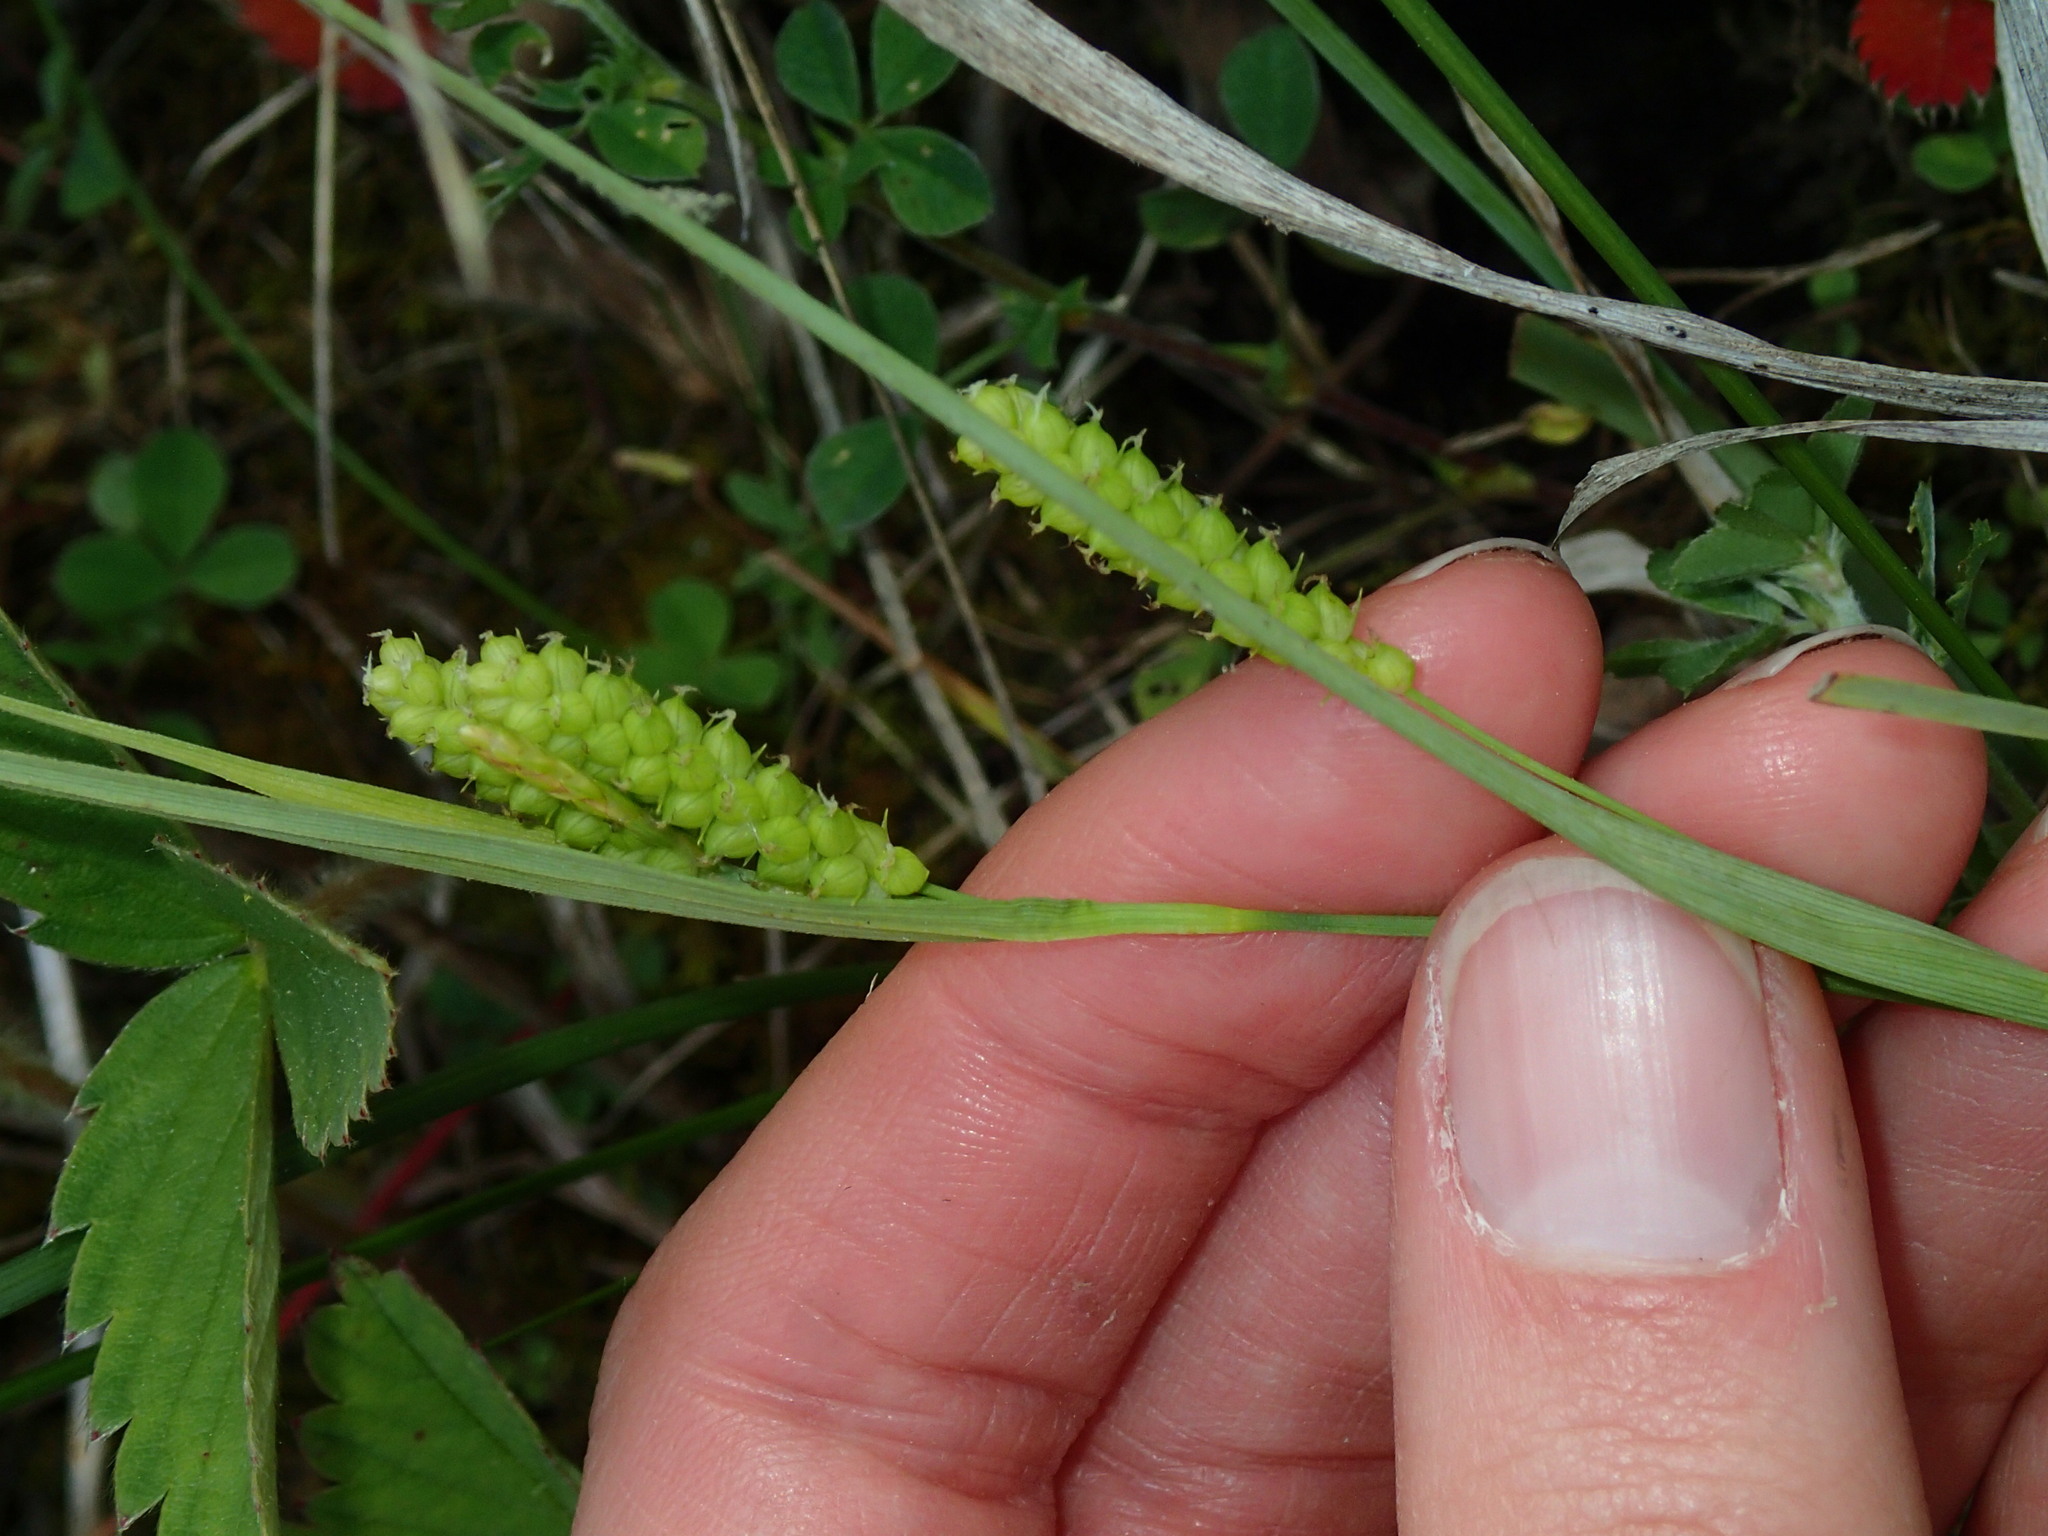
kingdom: Plantae
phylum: Tracheophyta
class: Liliopsida
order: Poales
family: Cyperaceae
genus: Carex
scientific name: Carex granularis
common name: Granular sedge
